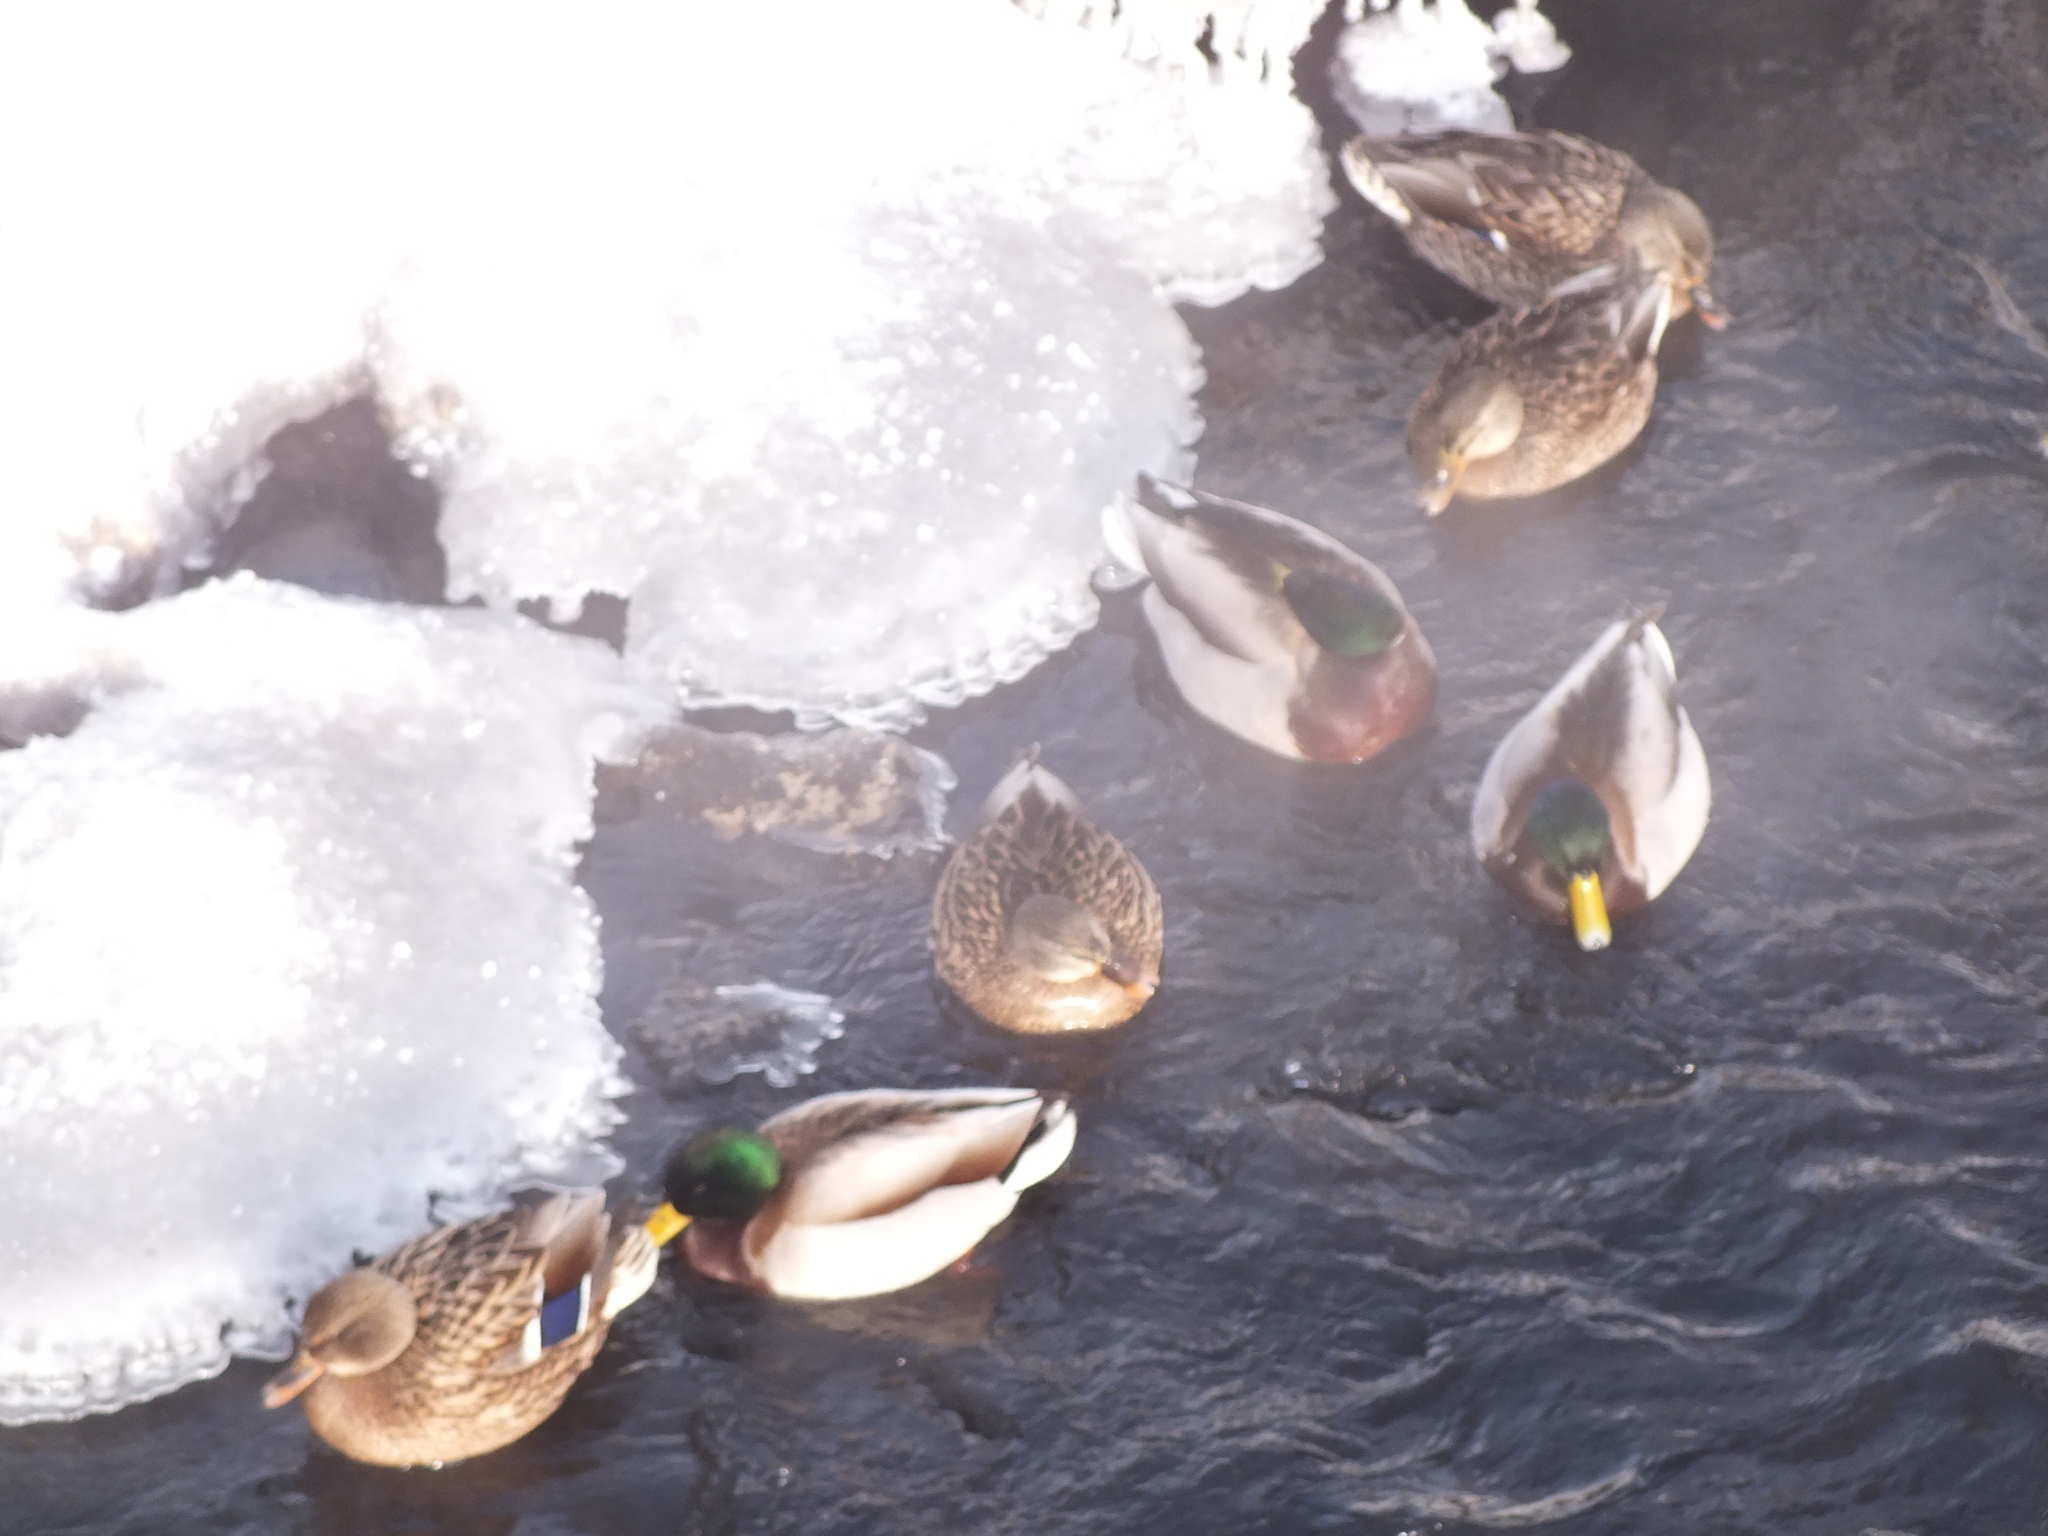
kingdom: Animalia
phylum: Chordata
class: Aves
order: Anseriformes
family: Anatidae
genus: Anas
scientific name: Anas platyrhynchos
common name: Mallard
